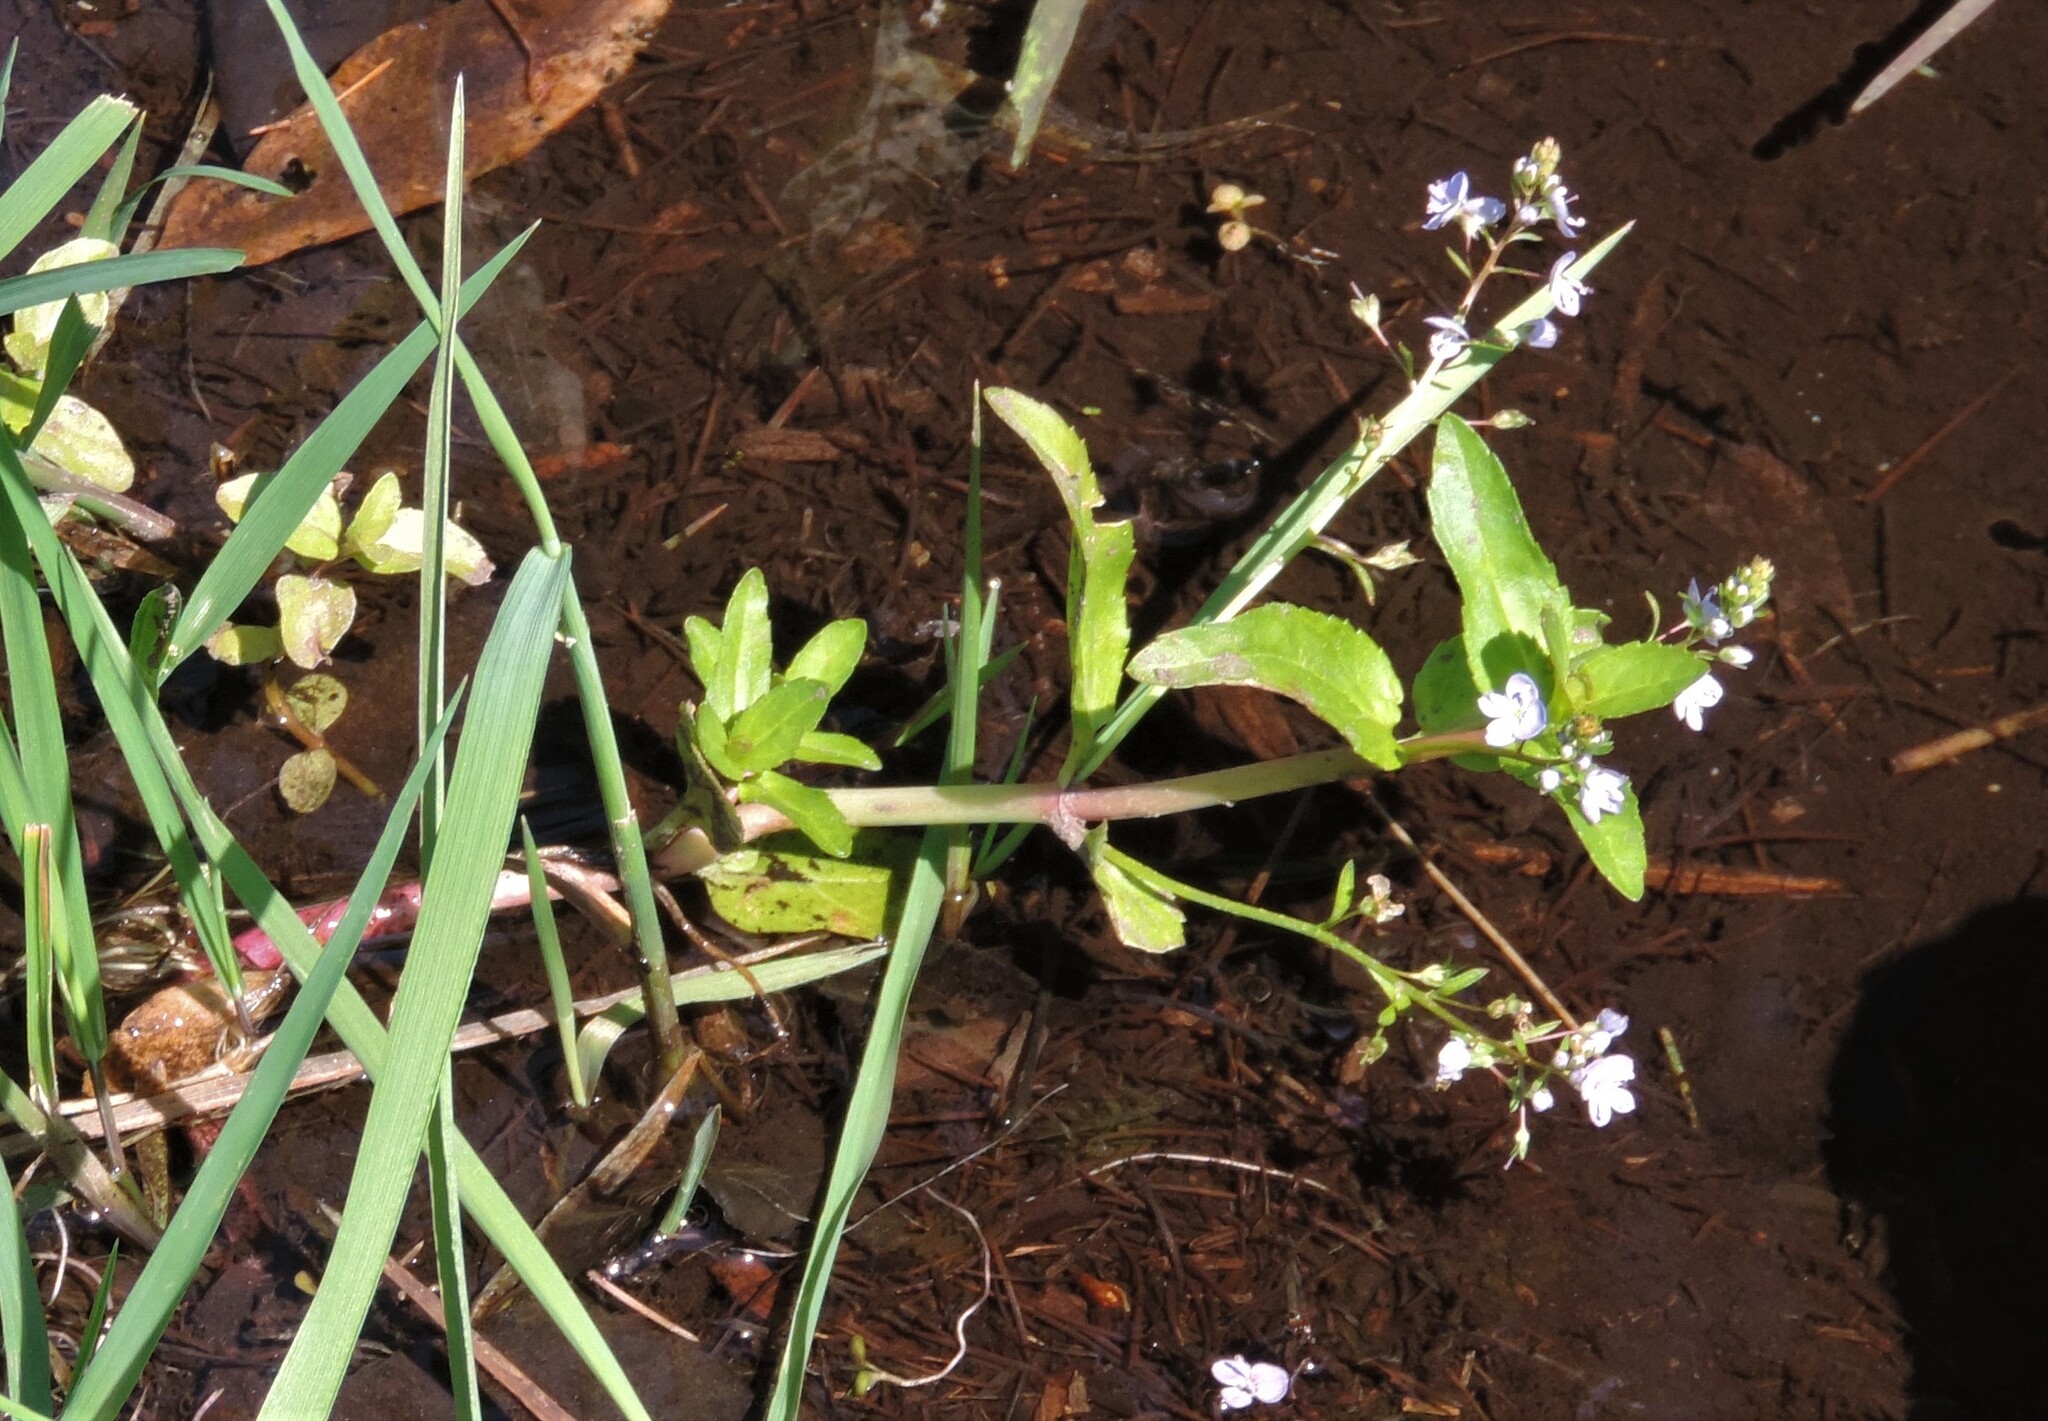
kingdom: Plantae
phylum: Tracheophyta
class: Magnoliopsida
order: Lamiales
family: Plantaginaceae
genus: Veronica
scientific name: Veronica americana
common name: American brooklime
